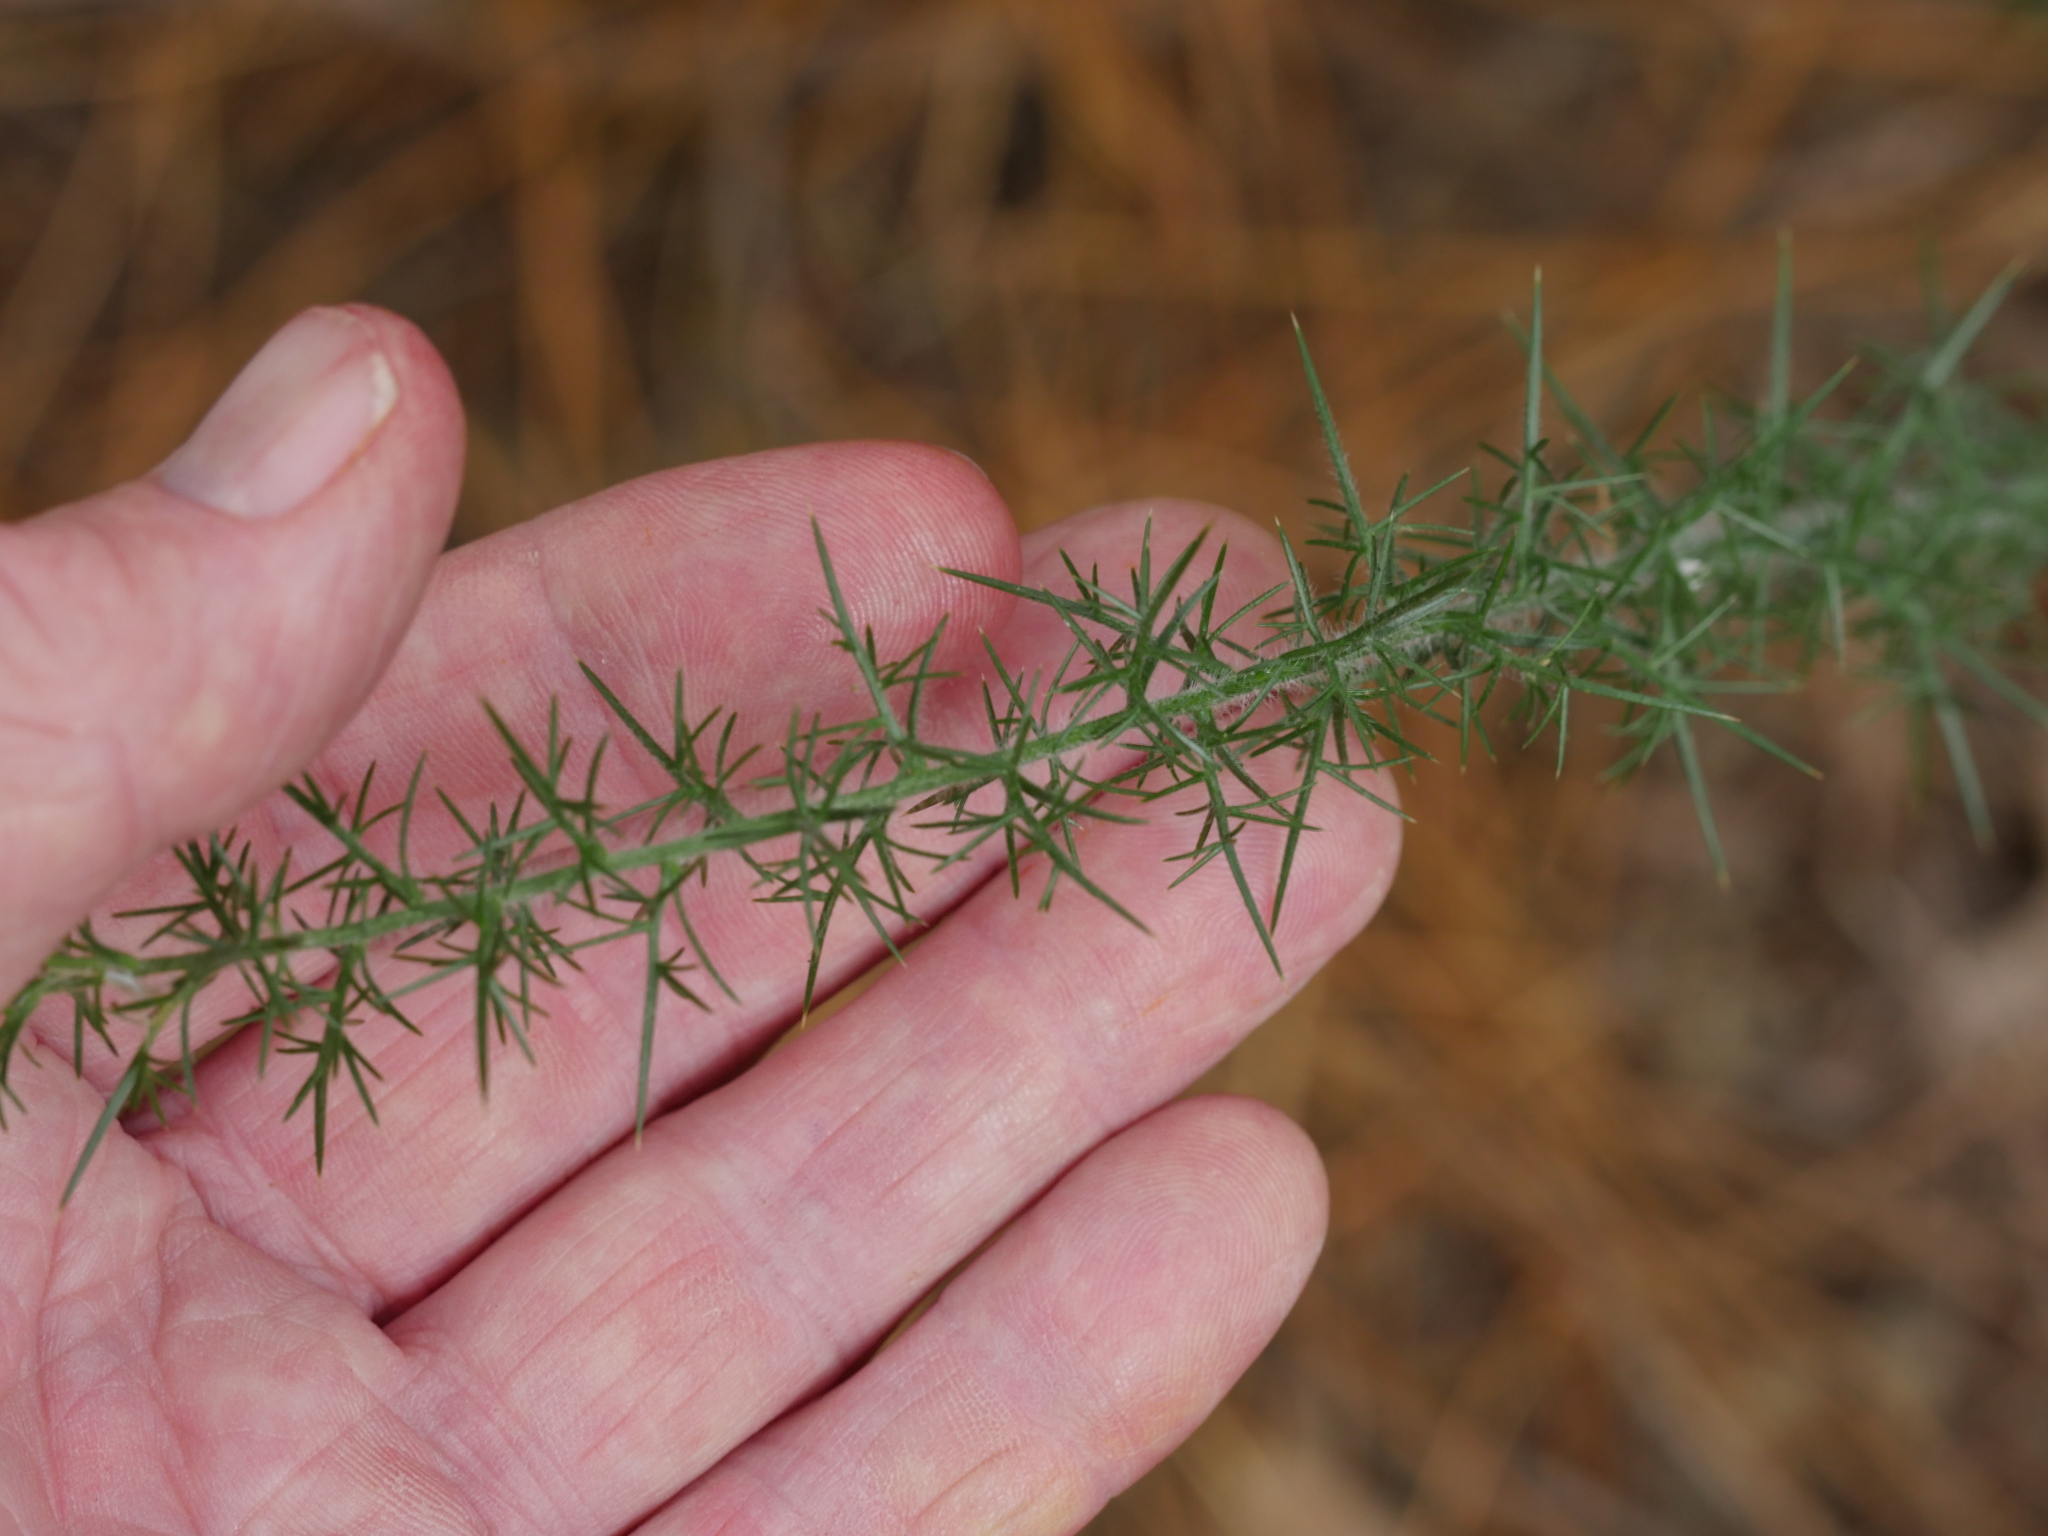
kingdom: Plantae
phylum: Tracheophyta
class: Magnoliopsida
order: Fabales
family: Fabaceae
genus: Ulex
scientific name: Ulex europaeus
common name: Common gorse
